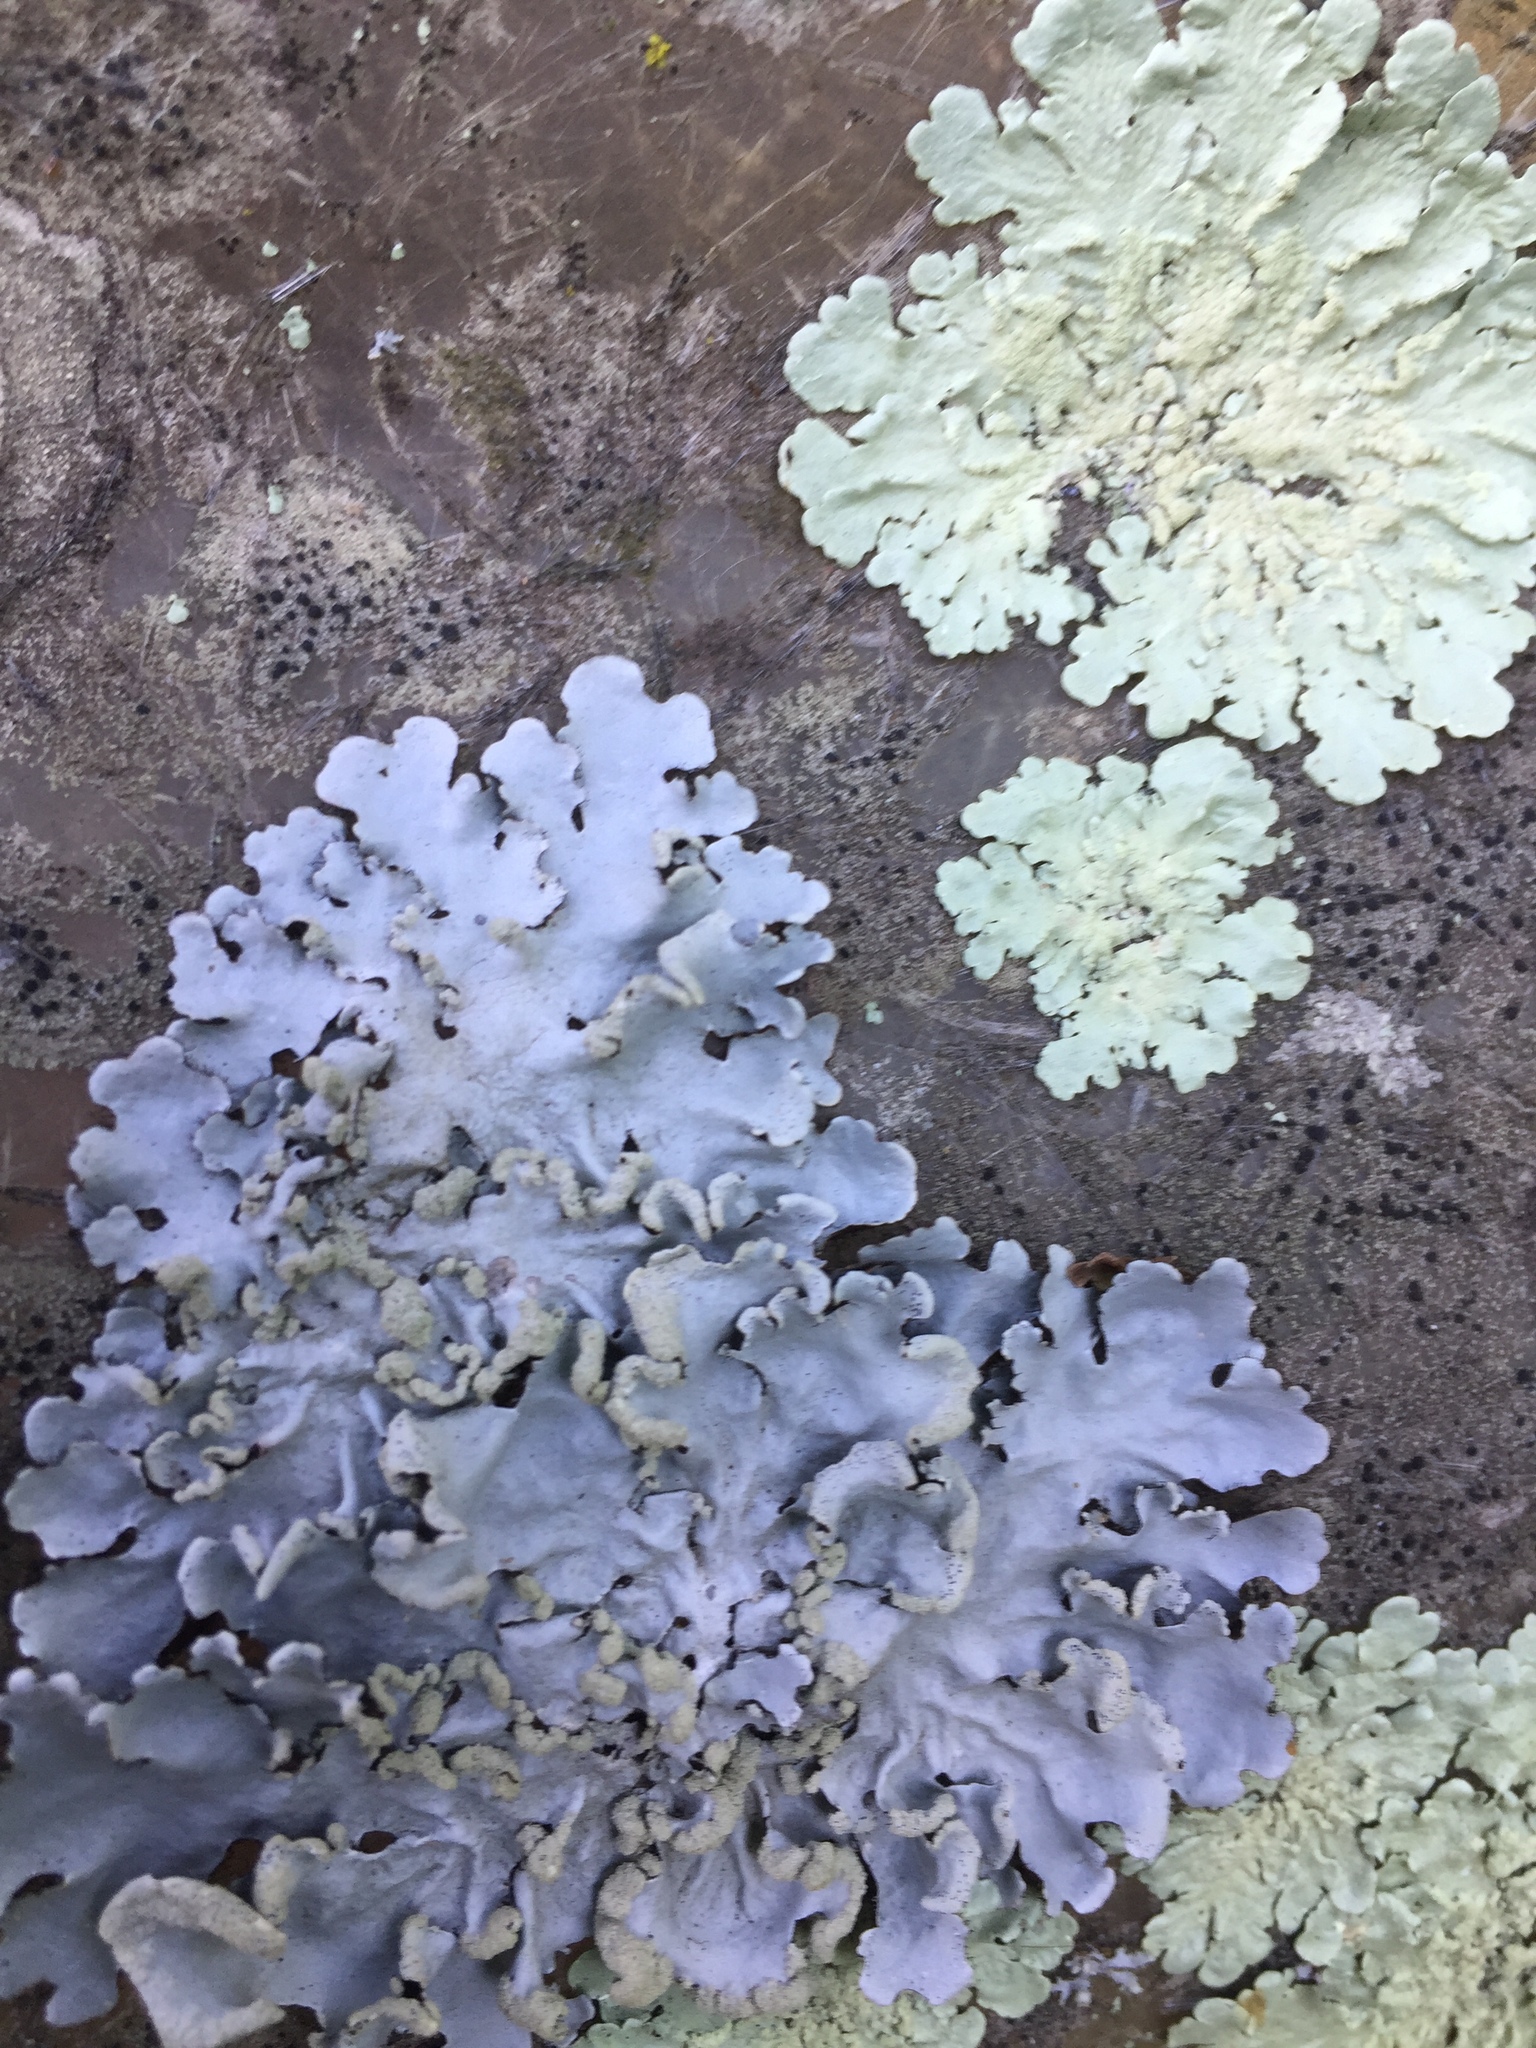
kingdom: Fungi
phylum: Ascomycota
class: Lecanoromycetes
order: Lecanorales
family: Parmeliaceae
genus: Flavoparmelia
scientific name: Flavoparmelia soredians
